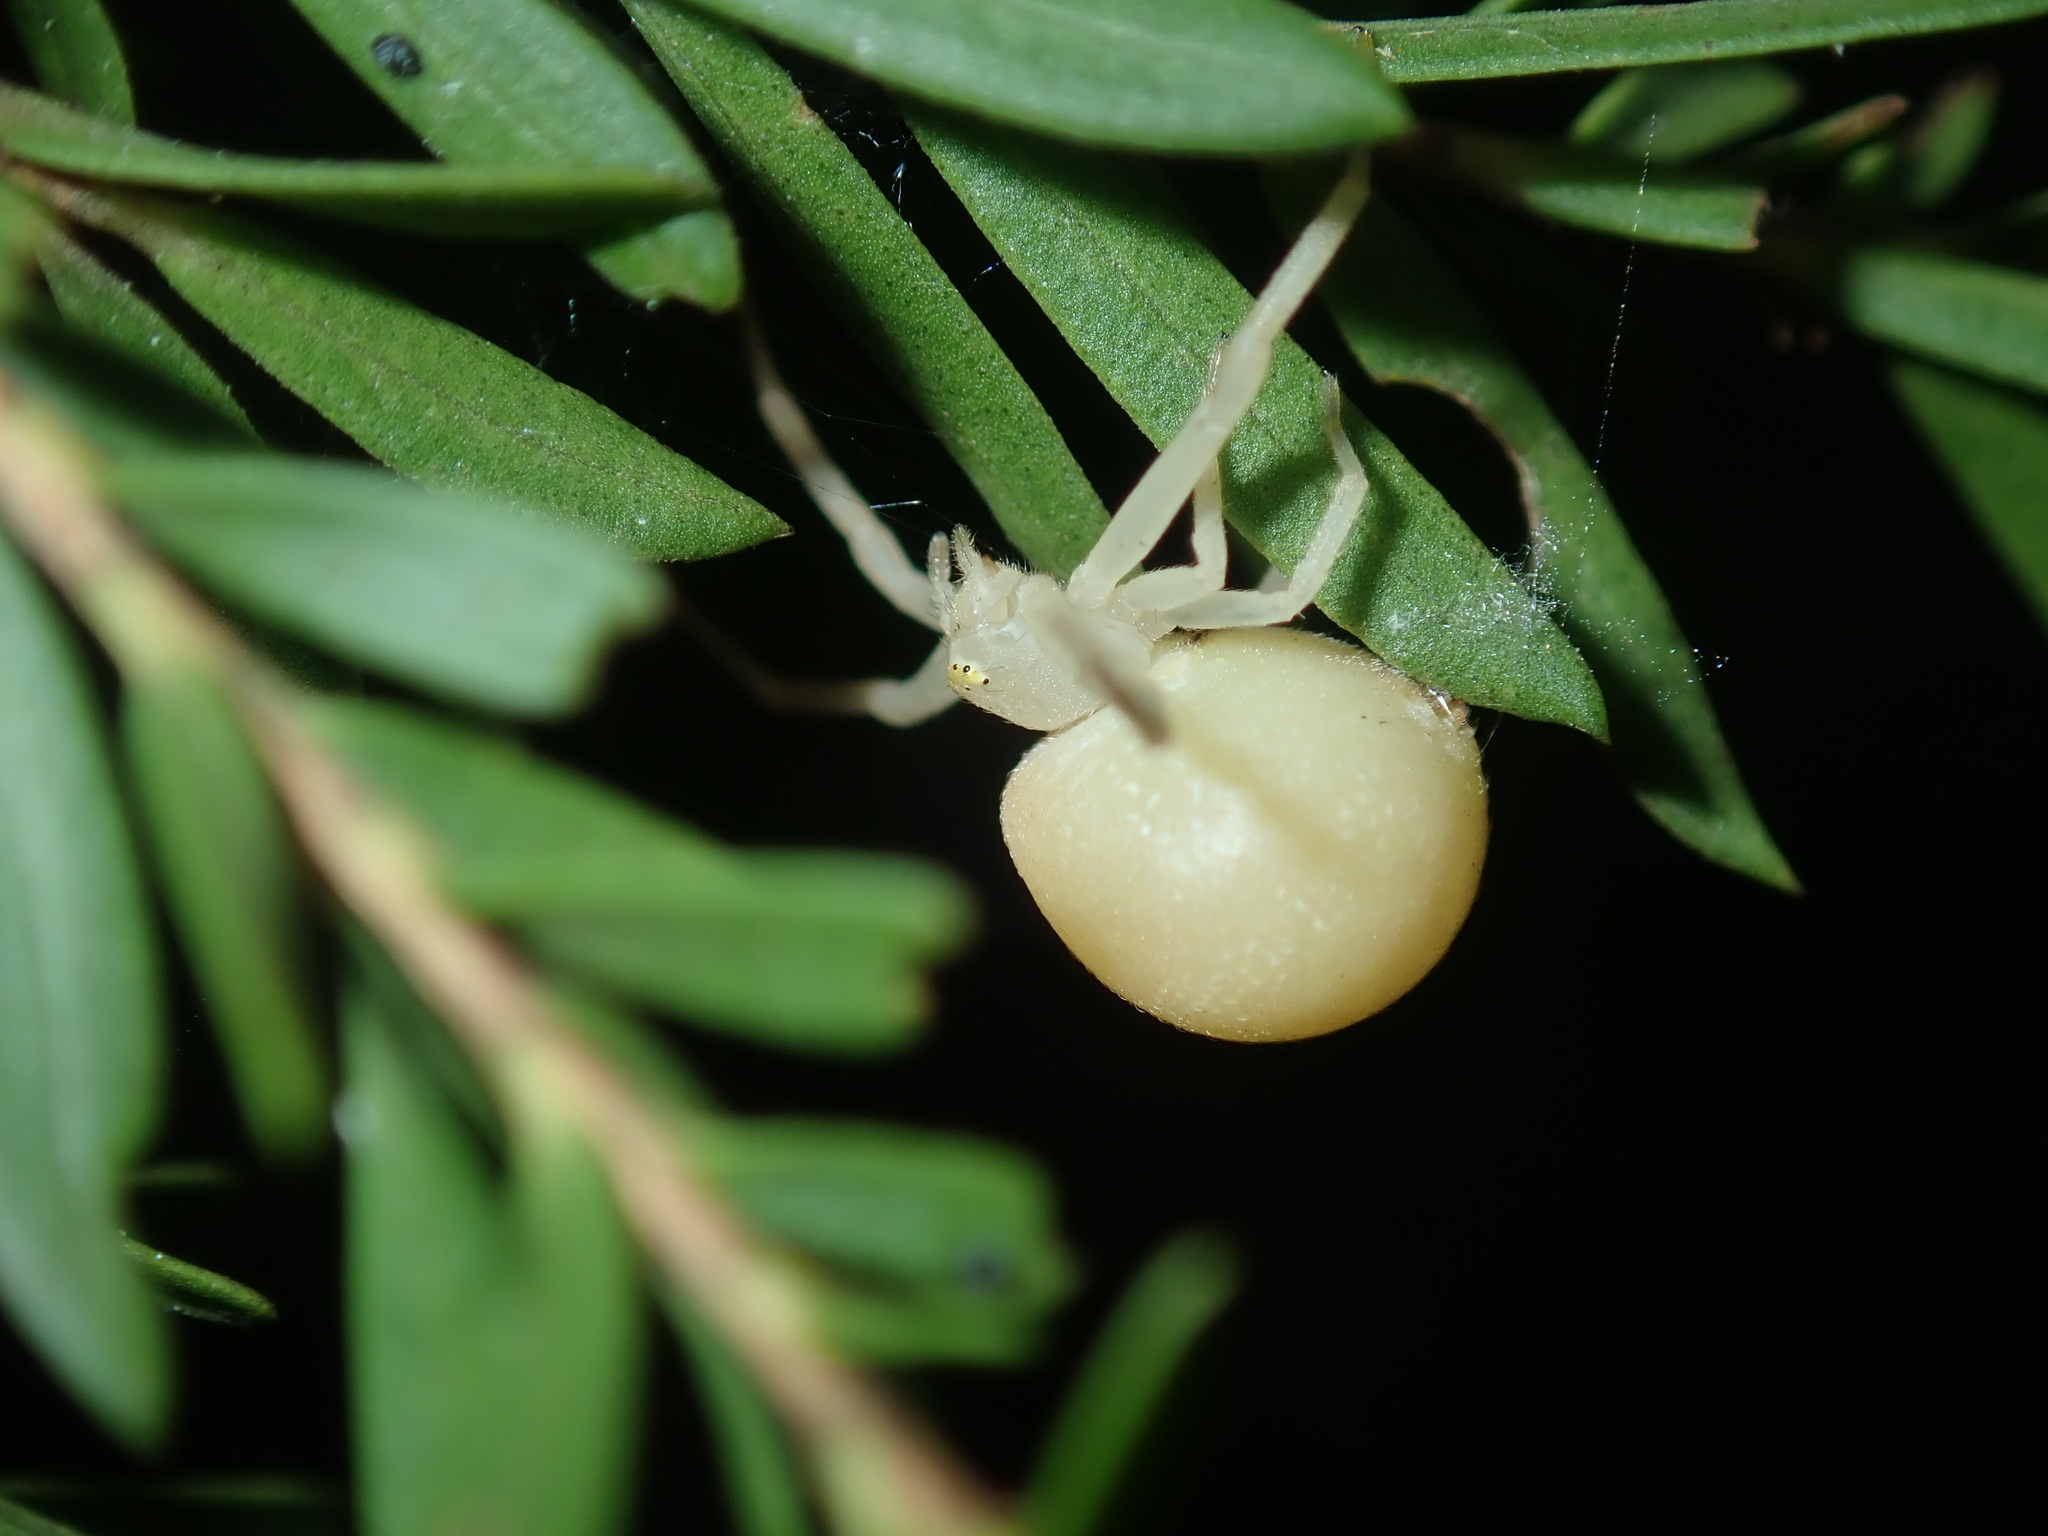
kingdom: Animalia
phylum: Arthropoda
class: Arachnida
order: Araneae
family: Thomisidae
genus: Zygometis
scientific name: Zygometis xanthogaster
